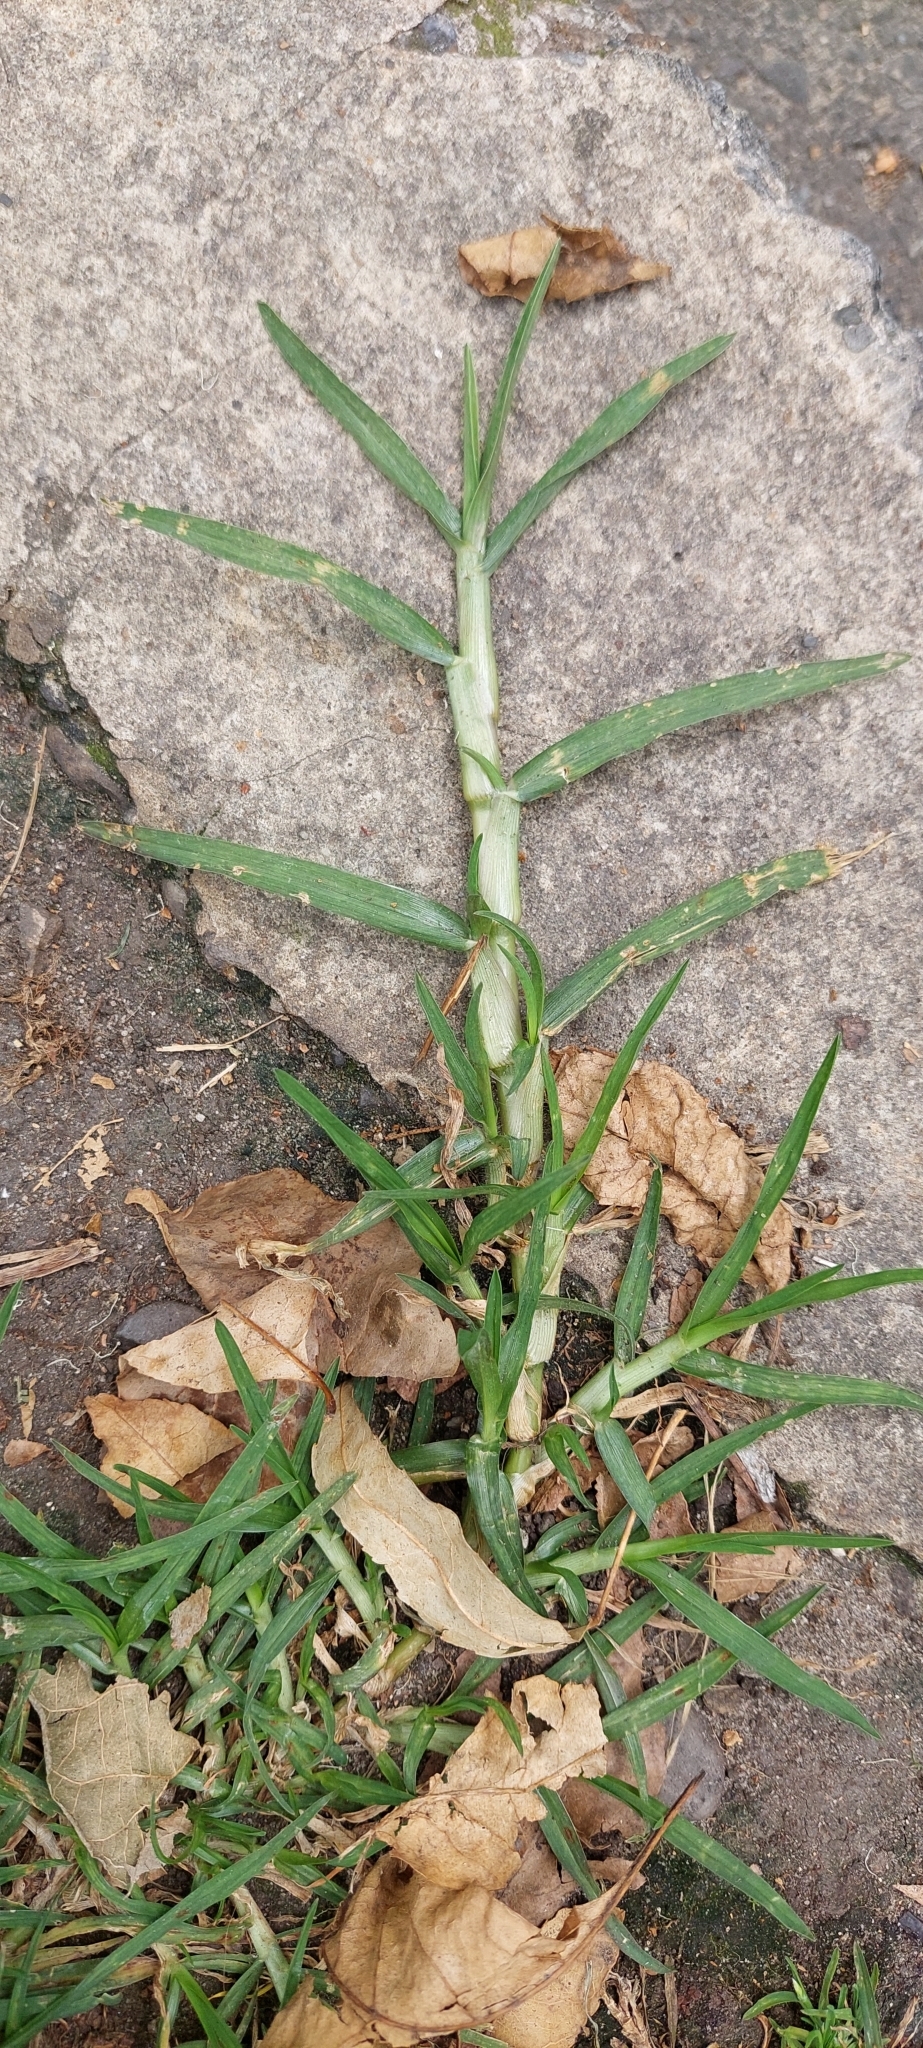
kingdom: Plantae
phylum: Tracheophyta
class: Liliopsida
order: Poales
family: Poaceae
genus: Cenchrus
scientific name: Cenchrus clandestinus
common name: Kikuyugrass
